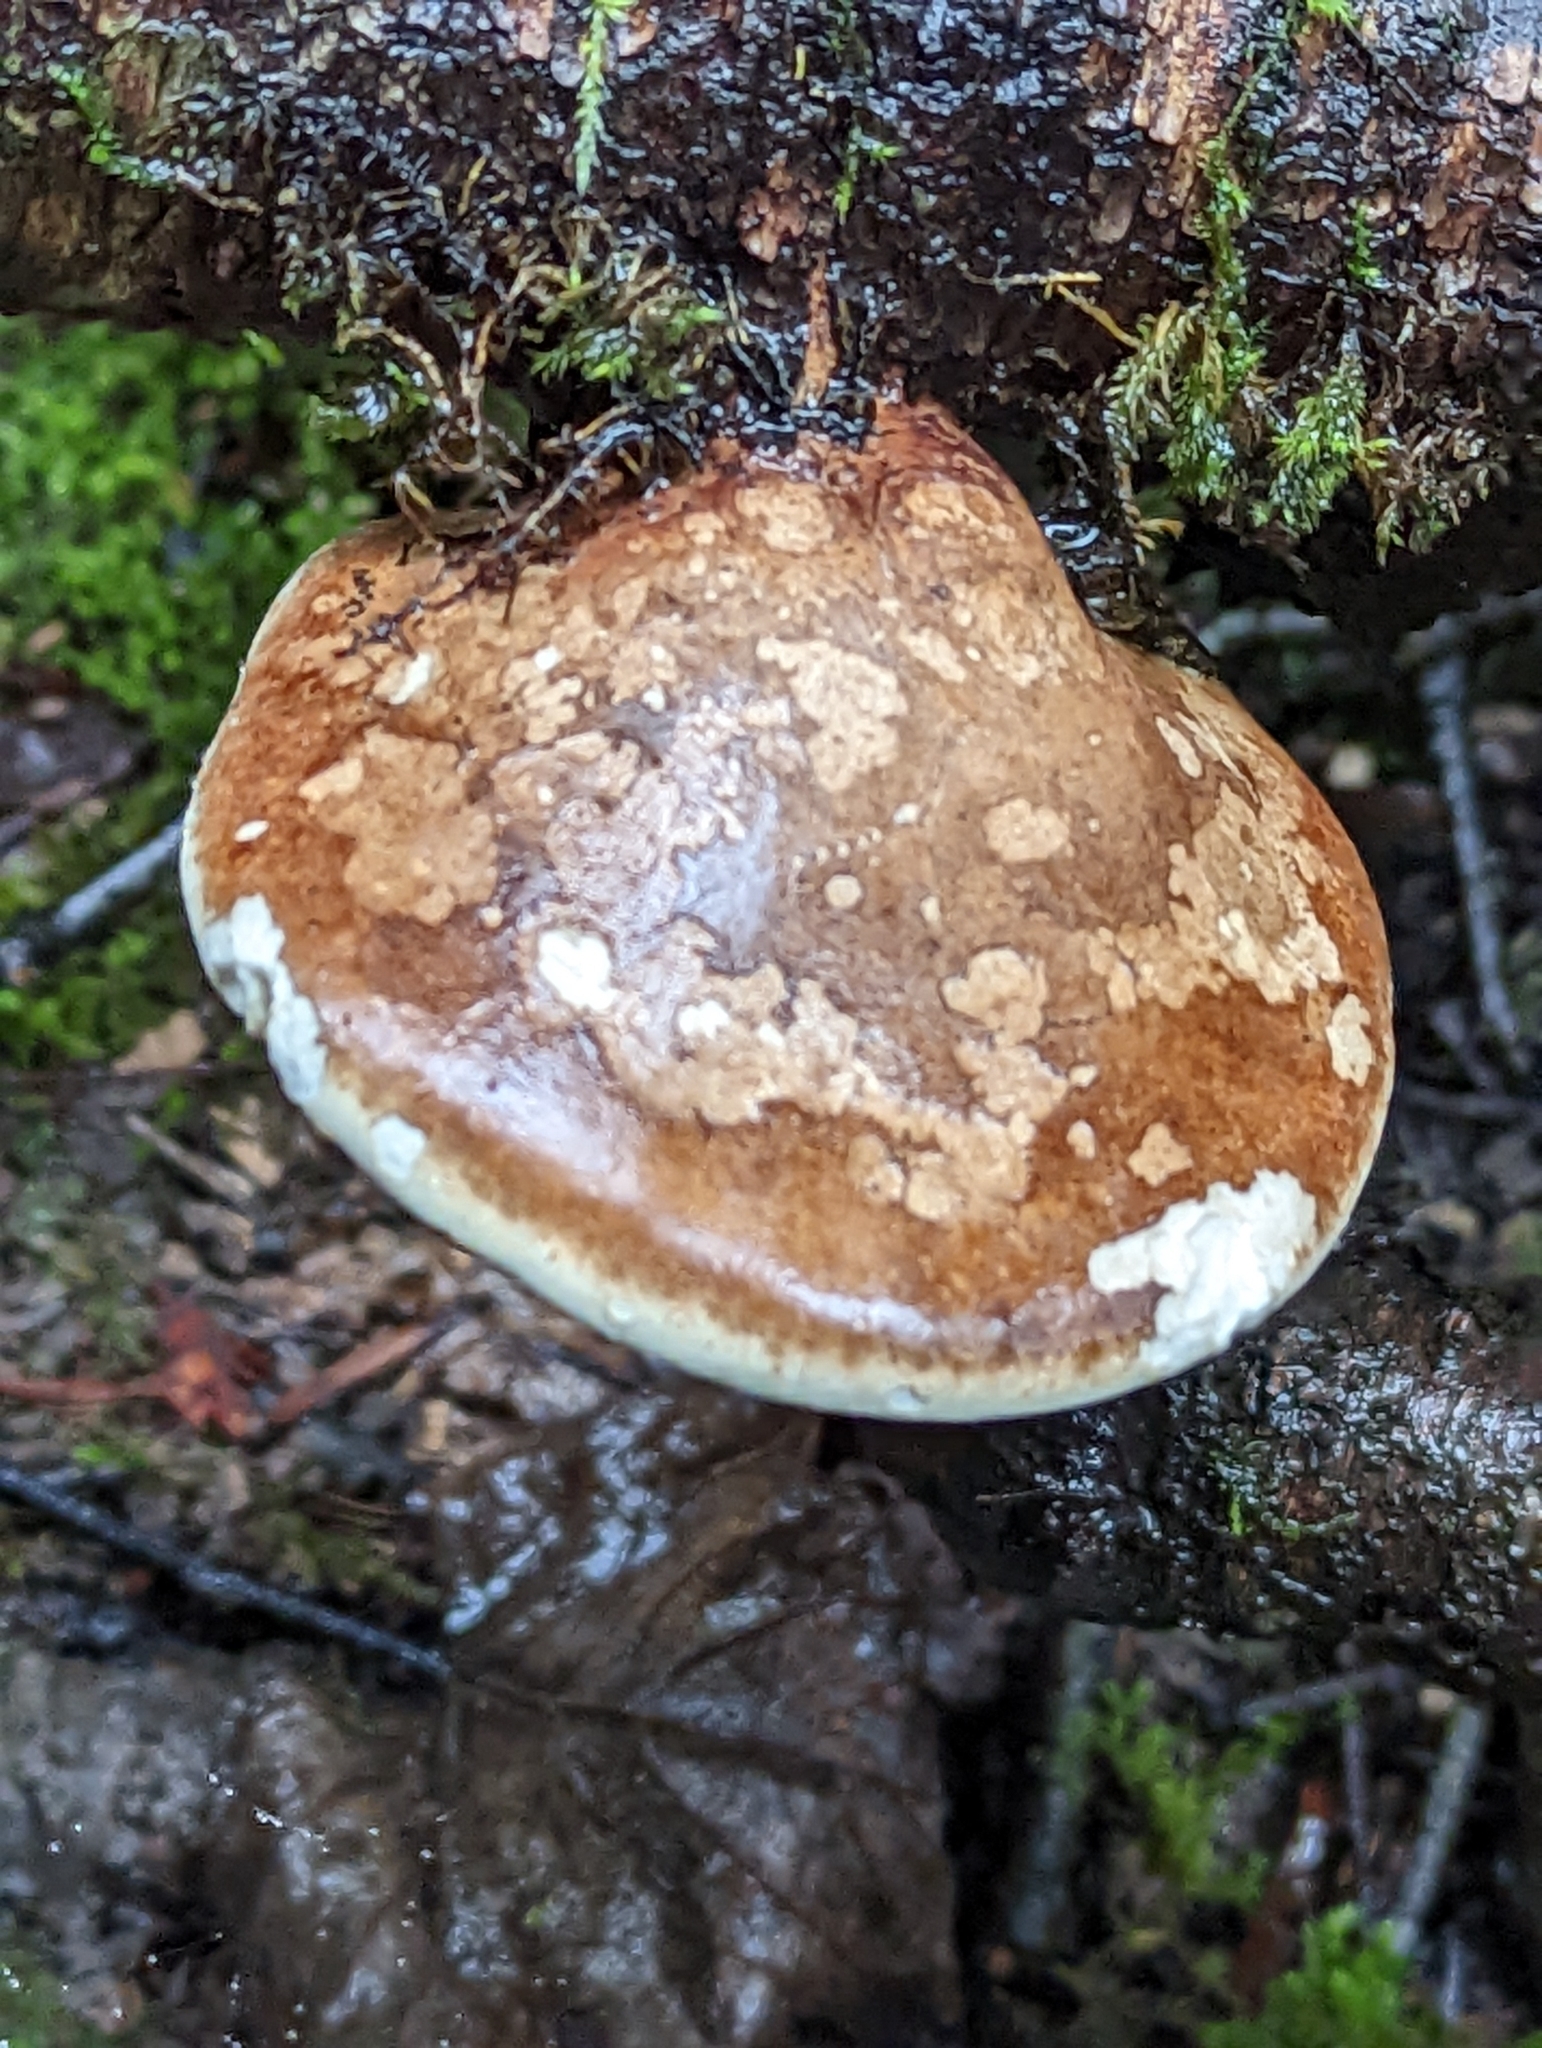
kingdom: Fungi
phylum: Basidiomycota
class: Agaricomycetes
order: Polyporales
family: Fomitopsidaceae
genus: Fomitopsis
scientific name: Fomitopsis betulina
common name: Birch polypore
